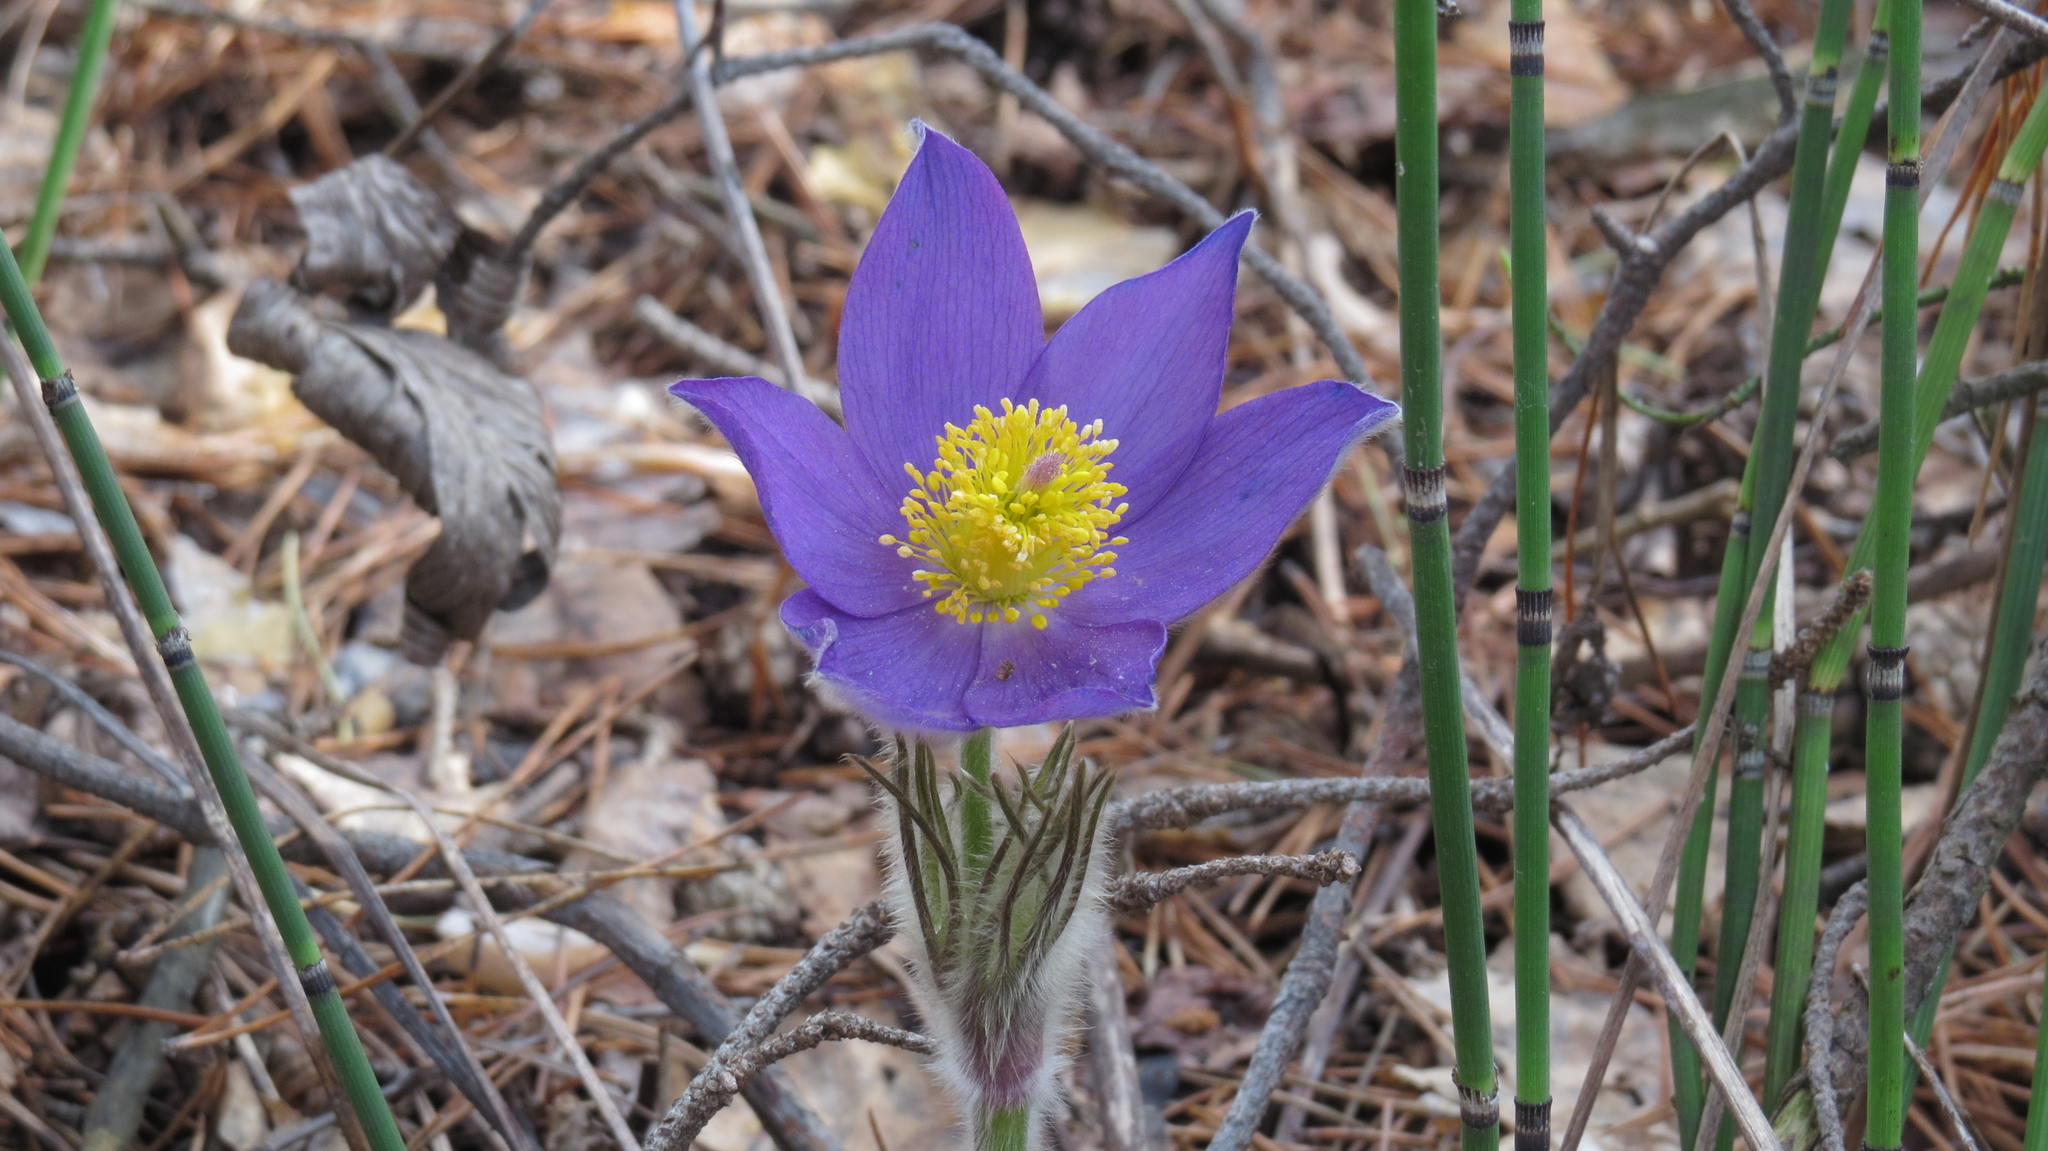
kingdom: Plantae
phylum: Tracheophyta
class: Magnoliopsida
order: Ranunculales
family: Ranunculaceae
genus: Pulsatilla
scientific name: Pulsatilla patens
